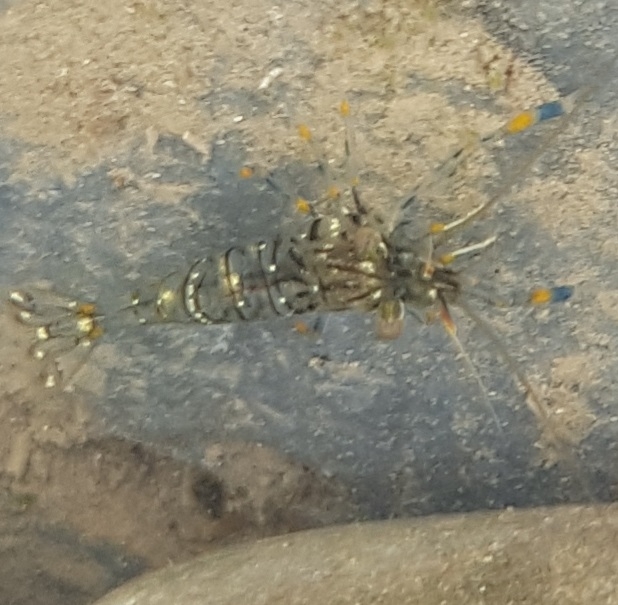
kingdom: Animalia
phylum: Arthropoda
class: Malacostraca
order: Decapoda
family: Palaemonidae
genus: Palaemon
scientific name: Palaemon elegans
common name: Grass prawm
